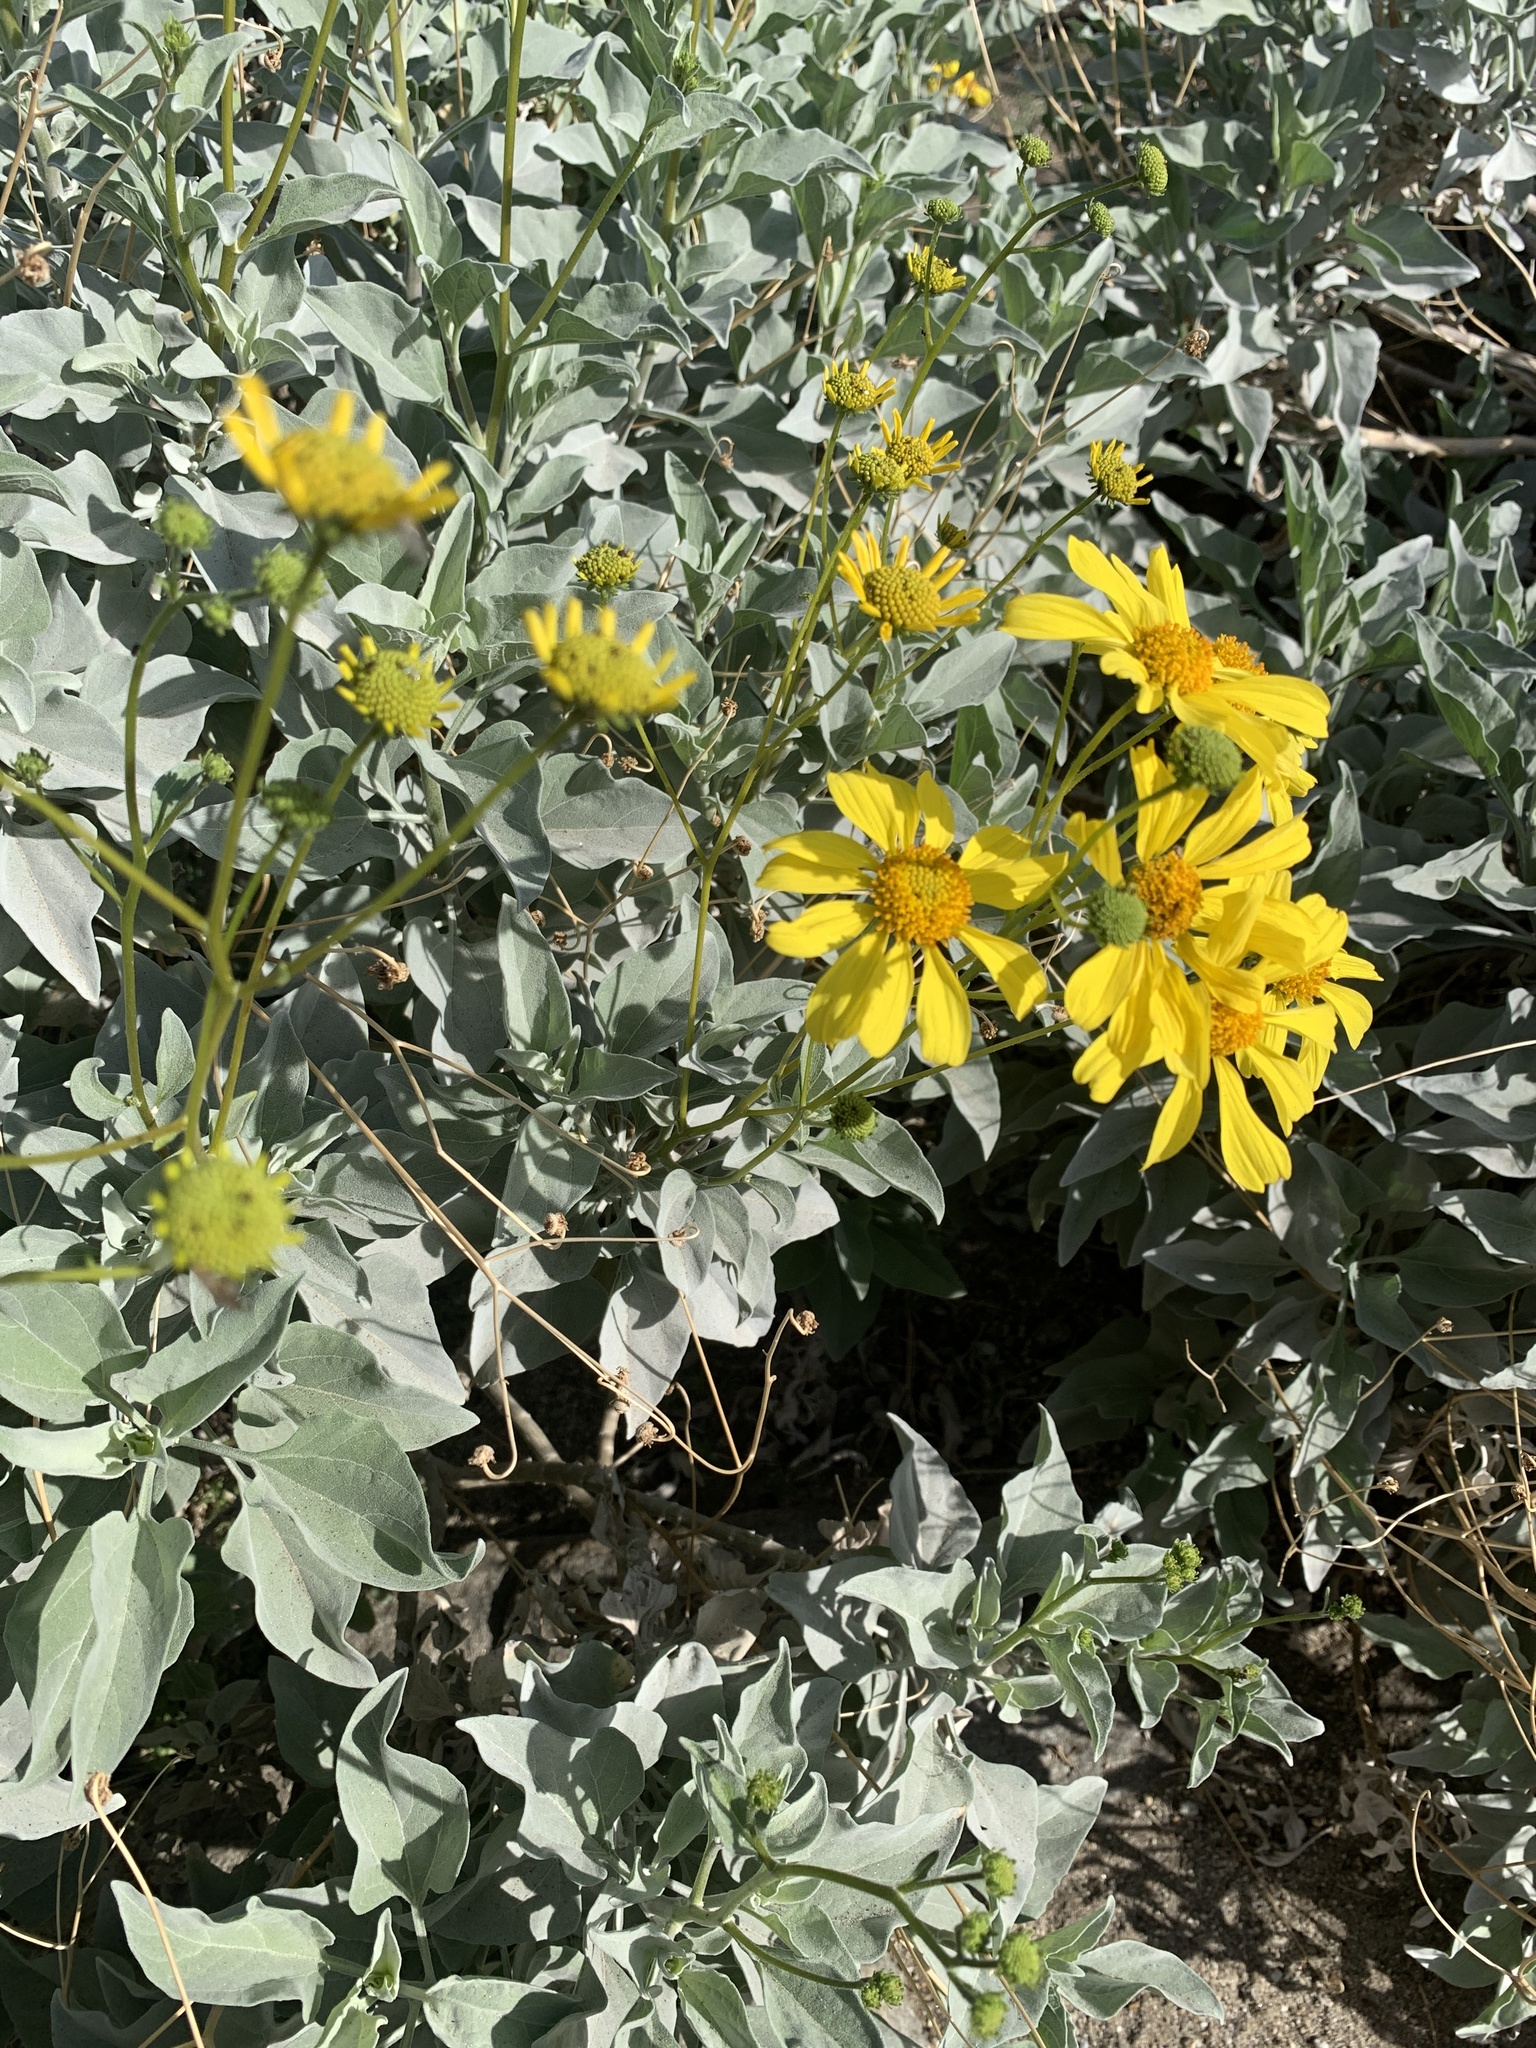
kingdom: Plantae
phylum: Tracheophyta
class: Magnoliopsida
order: Asterales
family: Asteraceae
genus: Encelia
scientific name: Encelia farinosa
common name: Brittlebush
